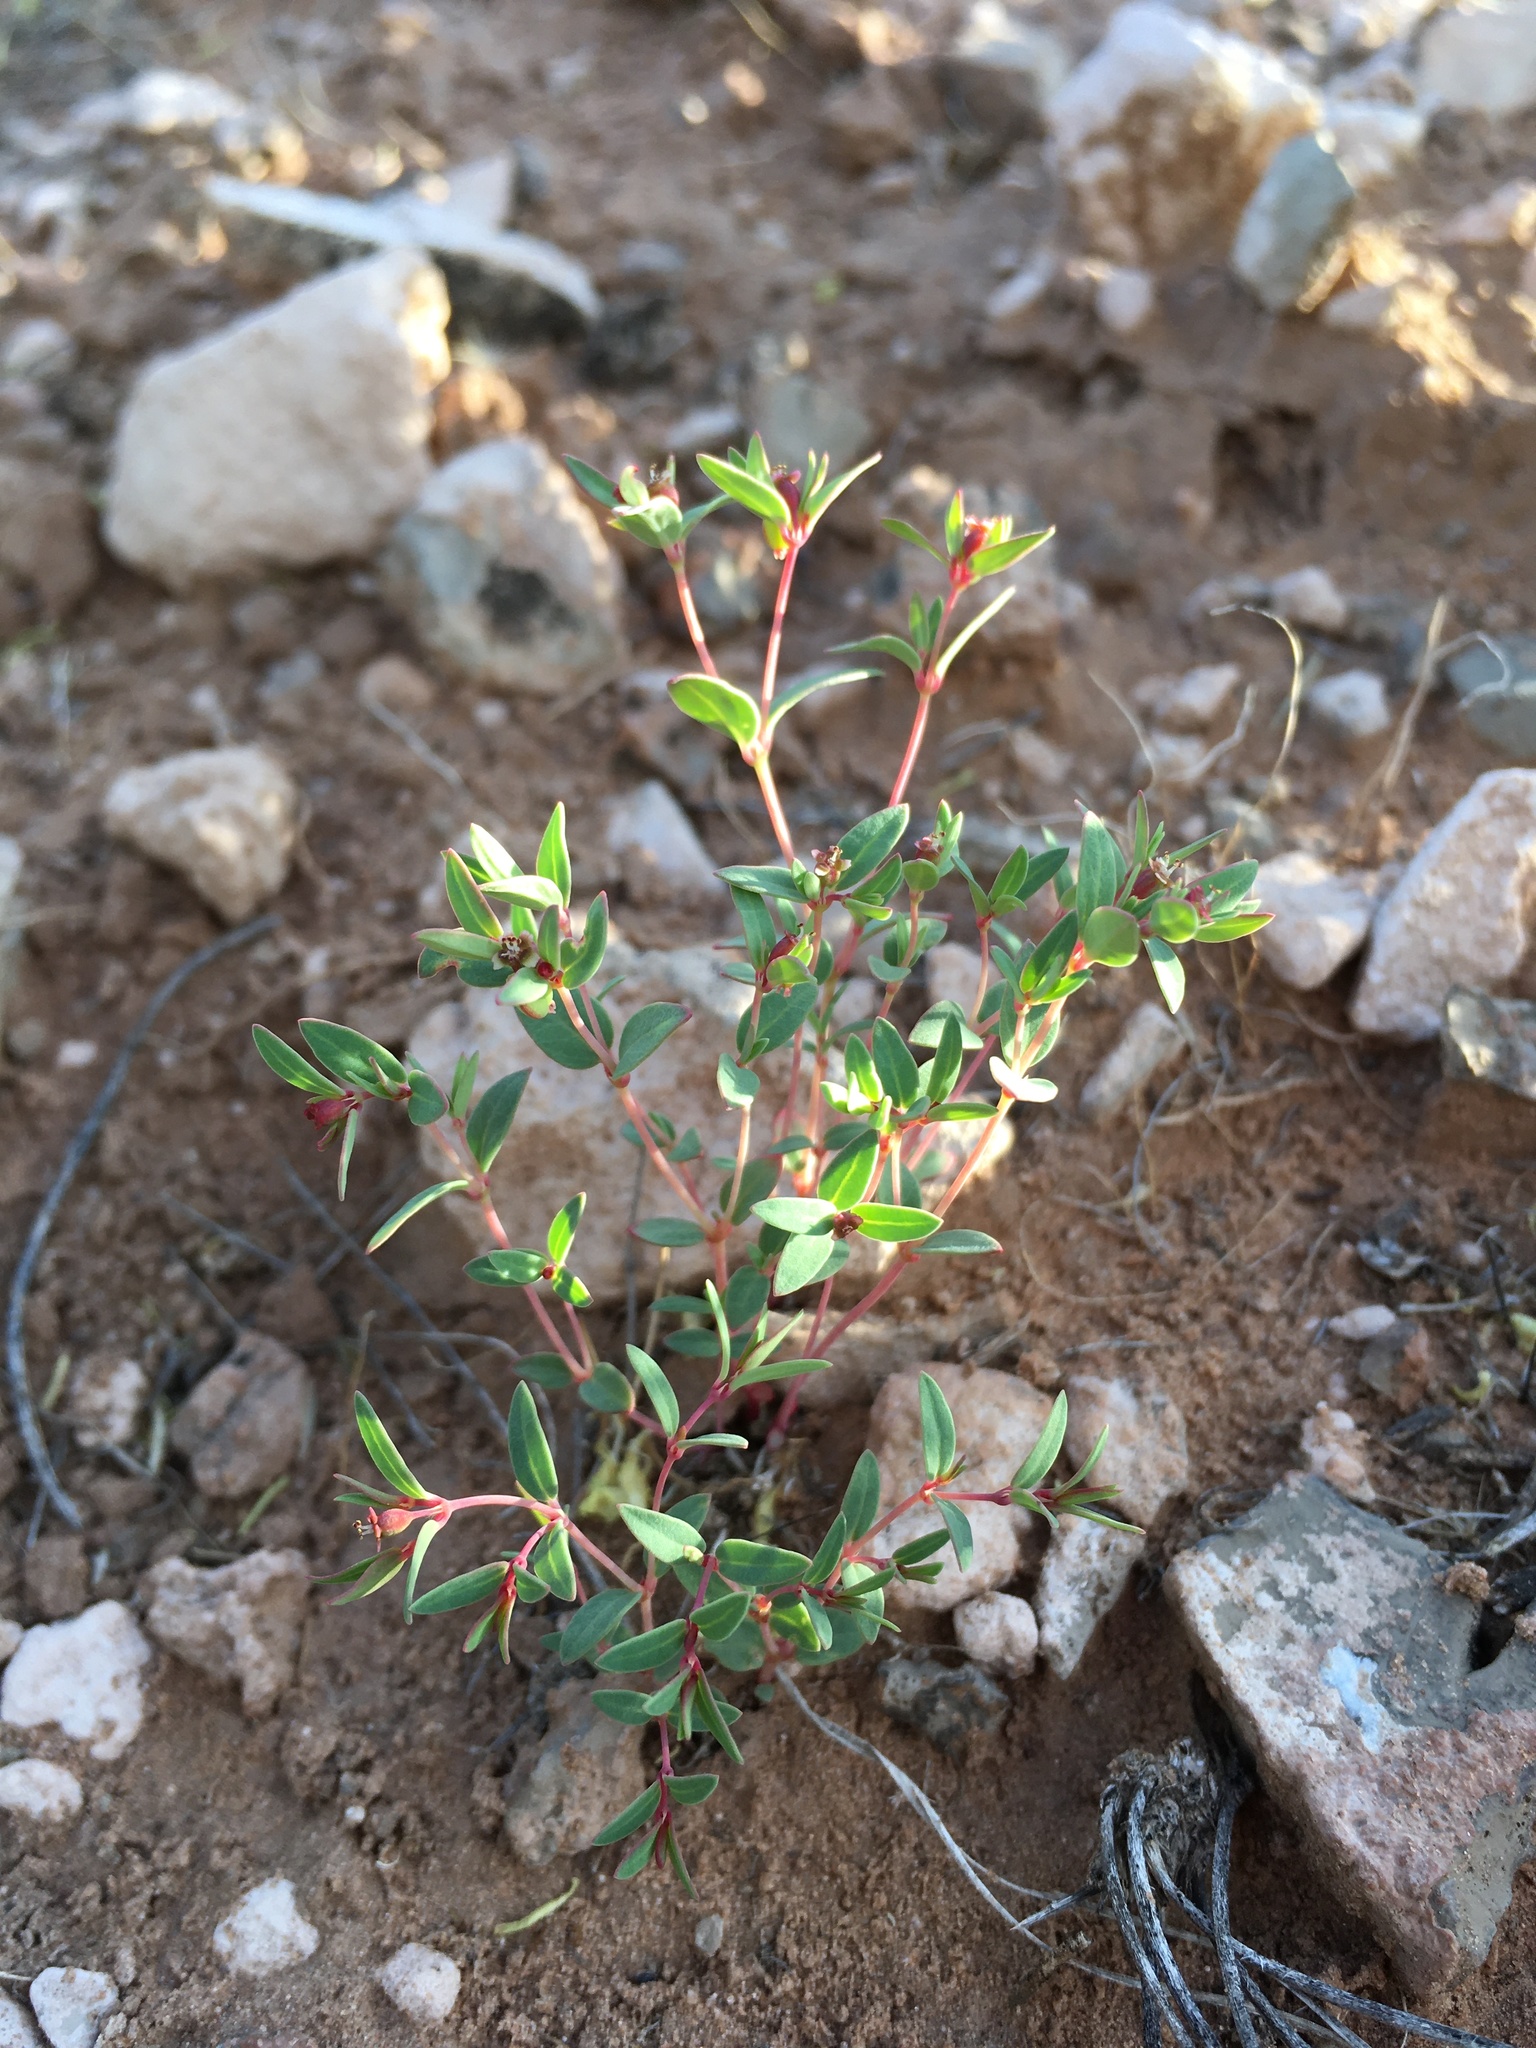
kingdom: Plantae
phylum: Tracheophyta
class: Magnoliopsida
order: Malpighiales
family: Euphorbiaceae
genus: Euphorbia
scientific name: Euphorbia chaetocalyx
